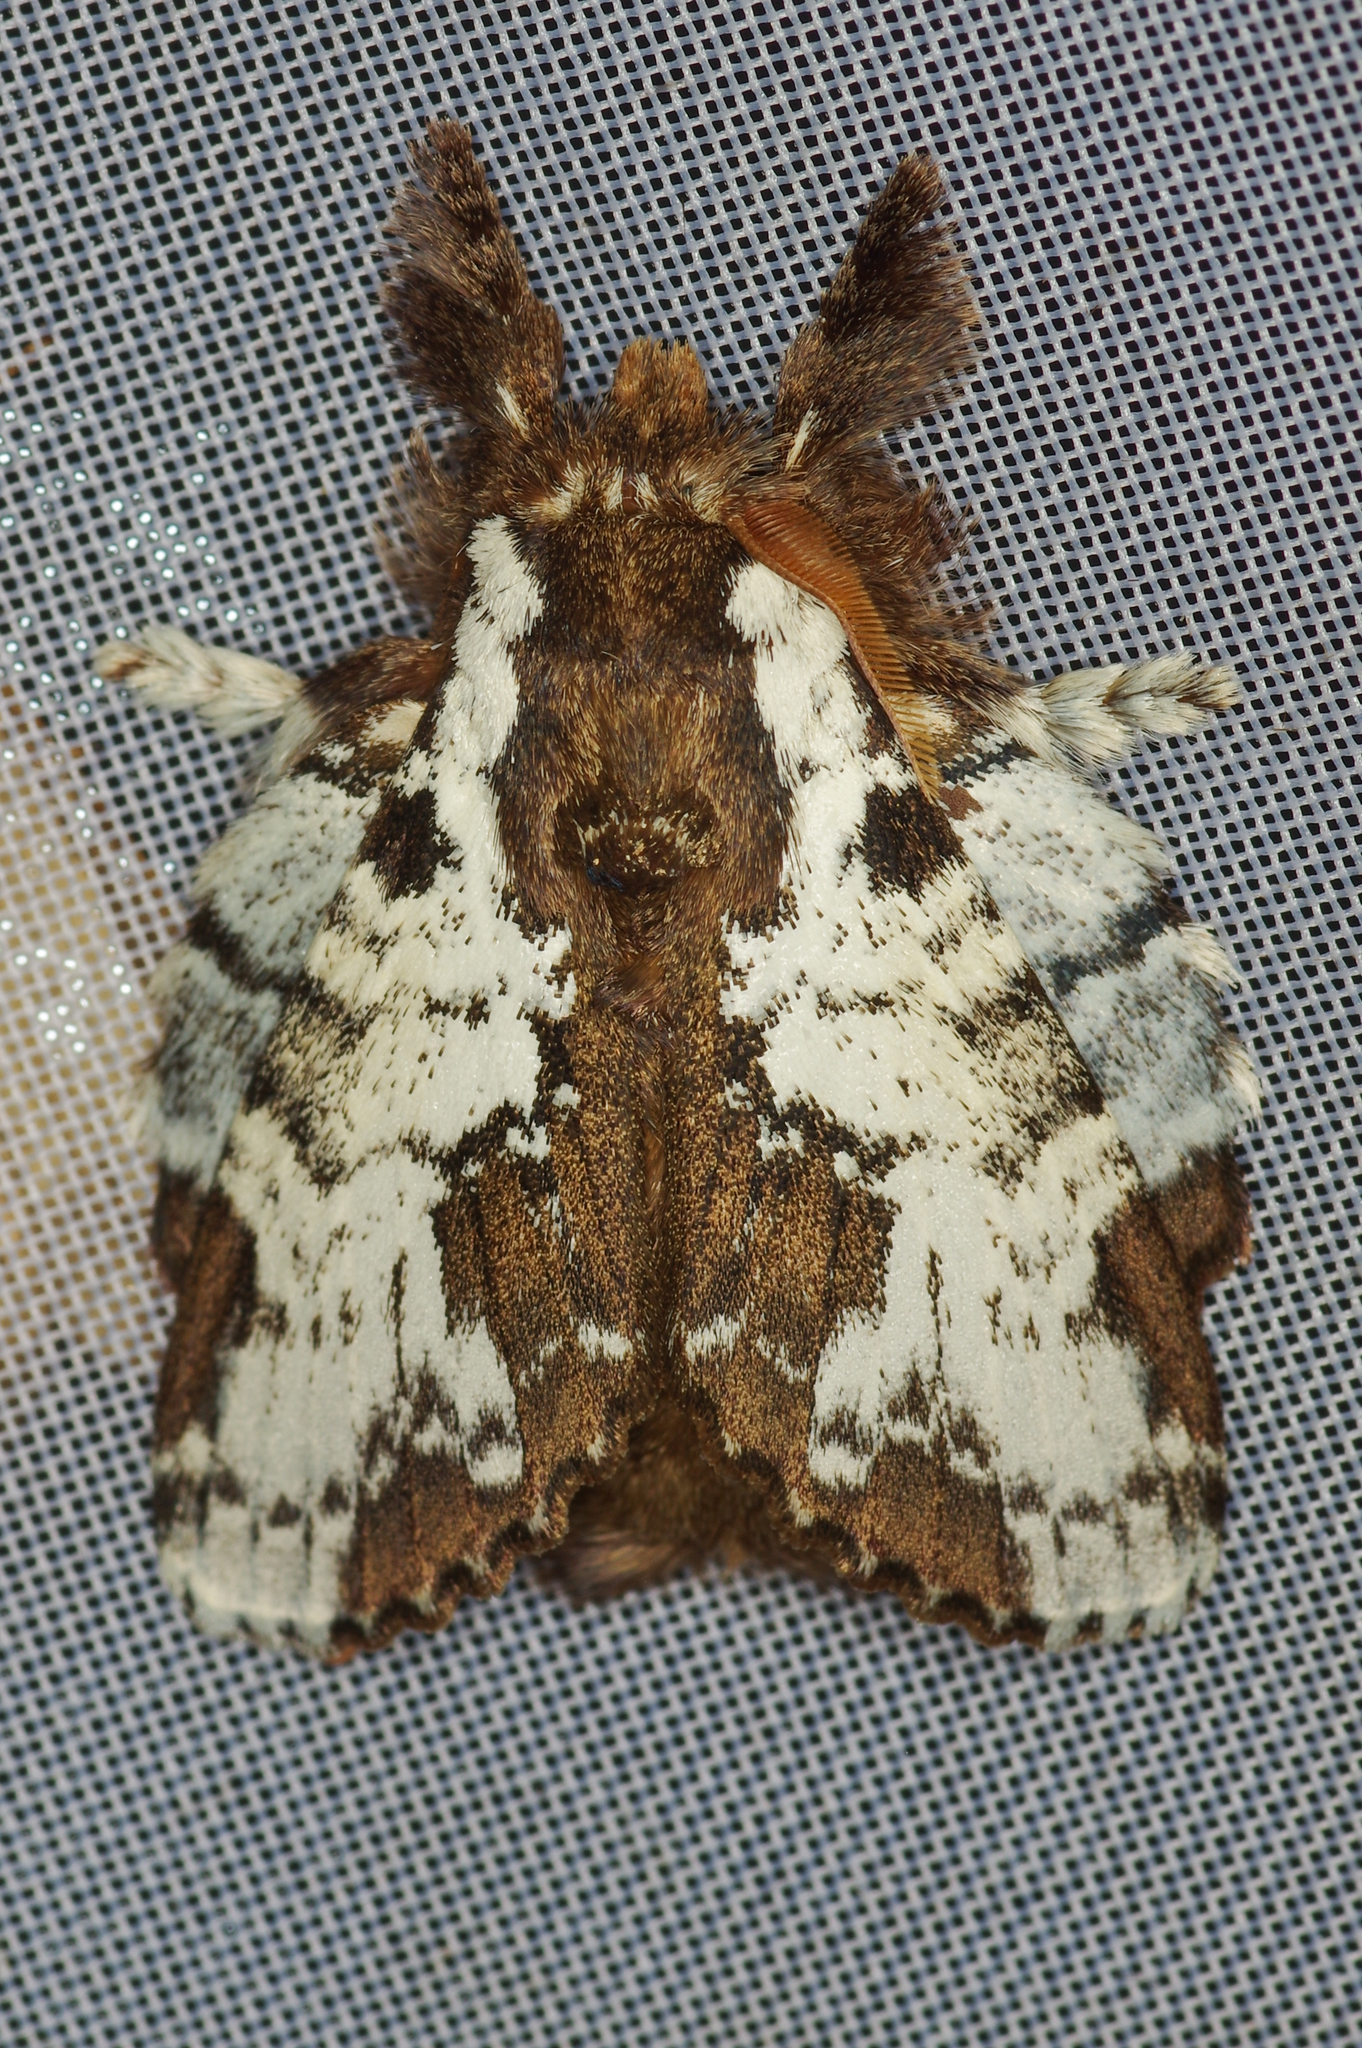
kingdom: Animalia
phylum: Arthropoda
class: Insecta
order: Lepidoptera
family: Lasiocampidae
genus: Euglyphis
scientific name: Euglyphis braganza
